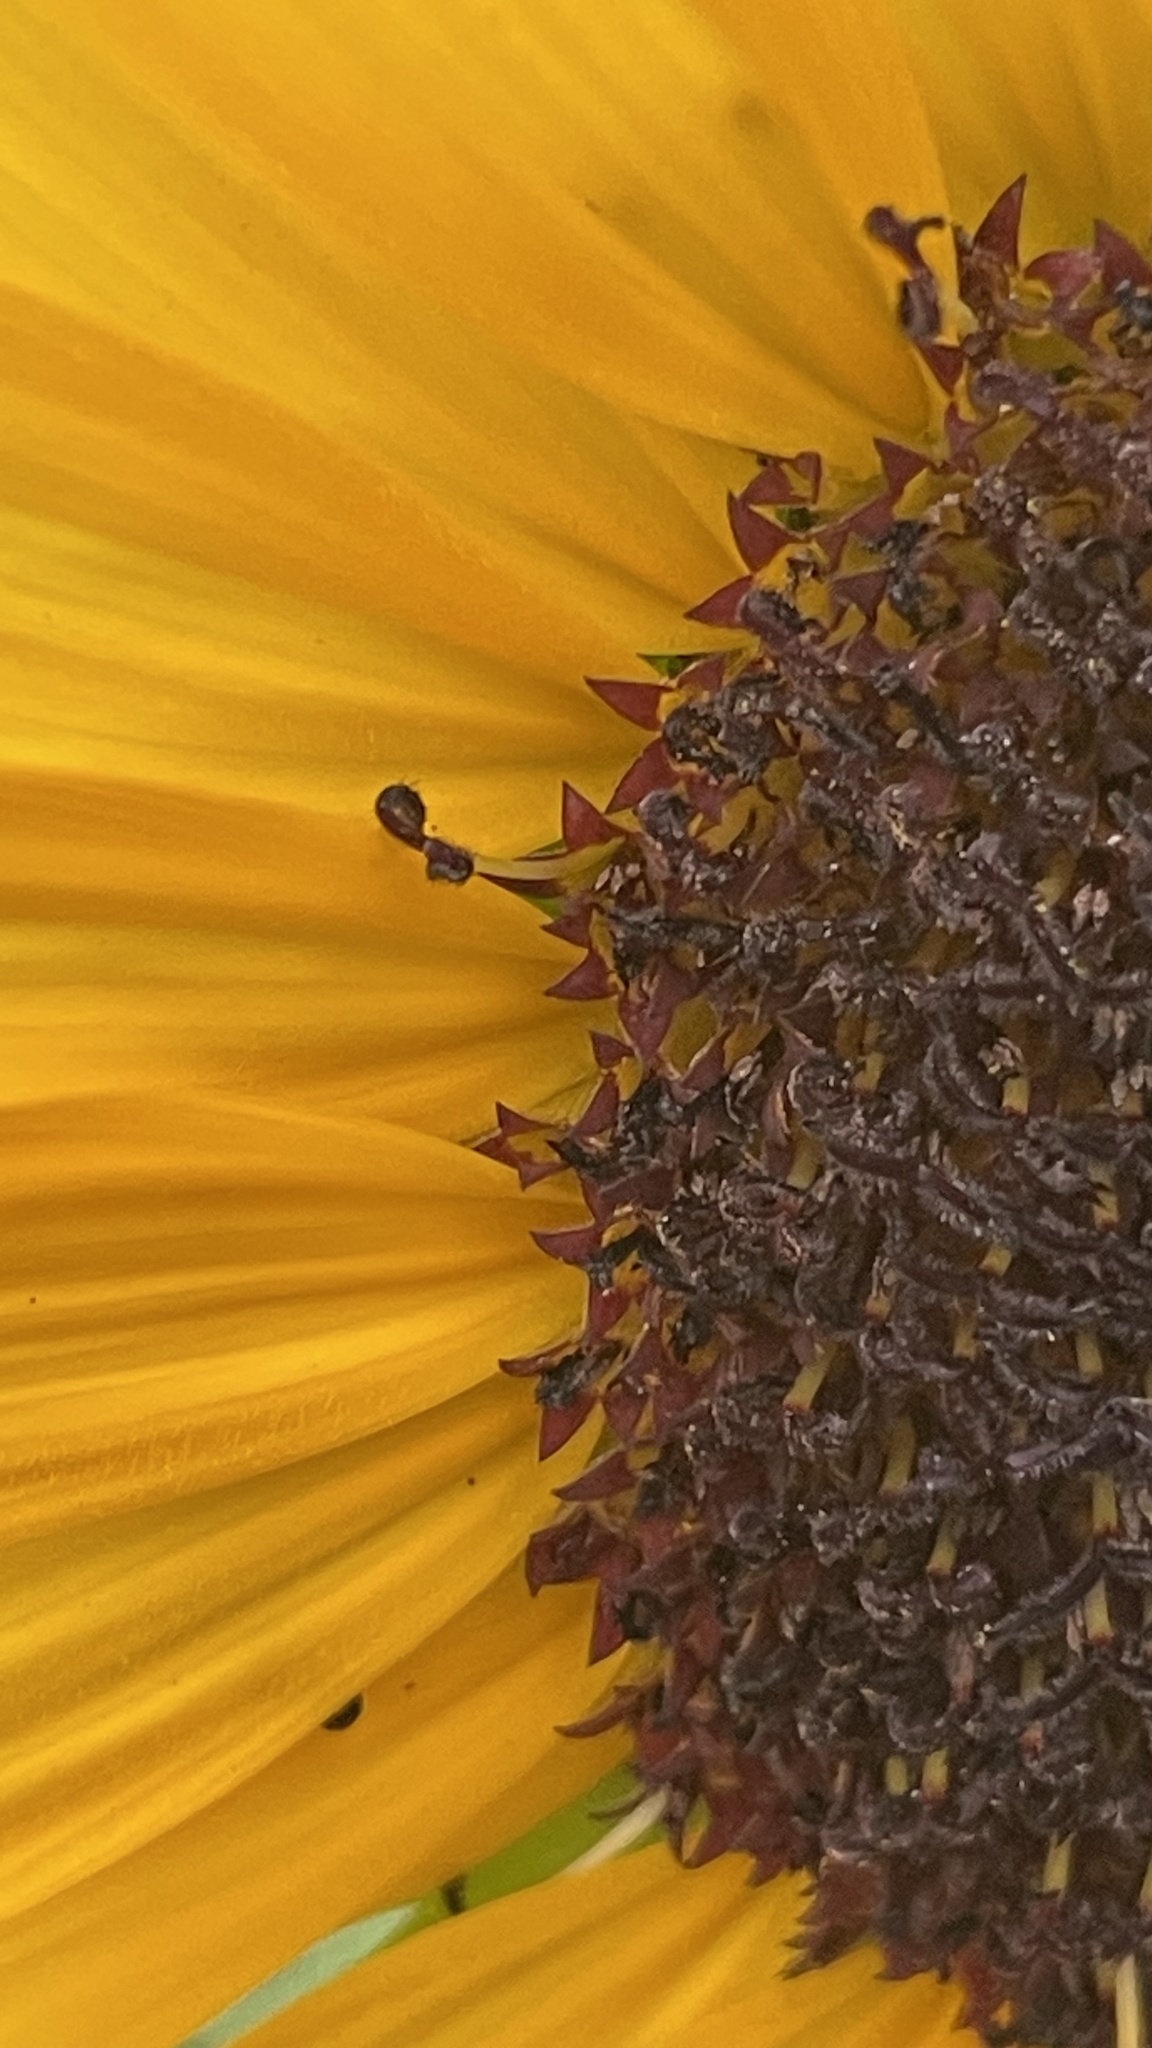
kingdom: Plantae
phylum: Tracheophyta
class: Magnoliopsida
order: Asterales
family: Asteraceae
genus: Helianthus
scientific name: Helianthus annuus
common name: Sunflower
